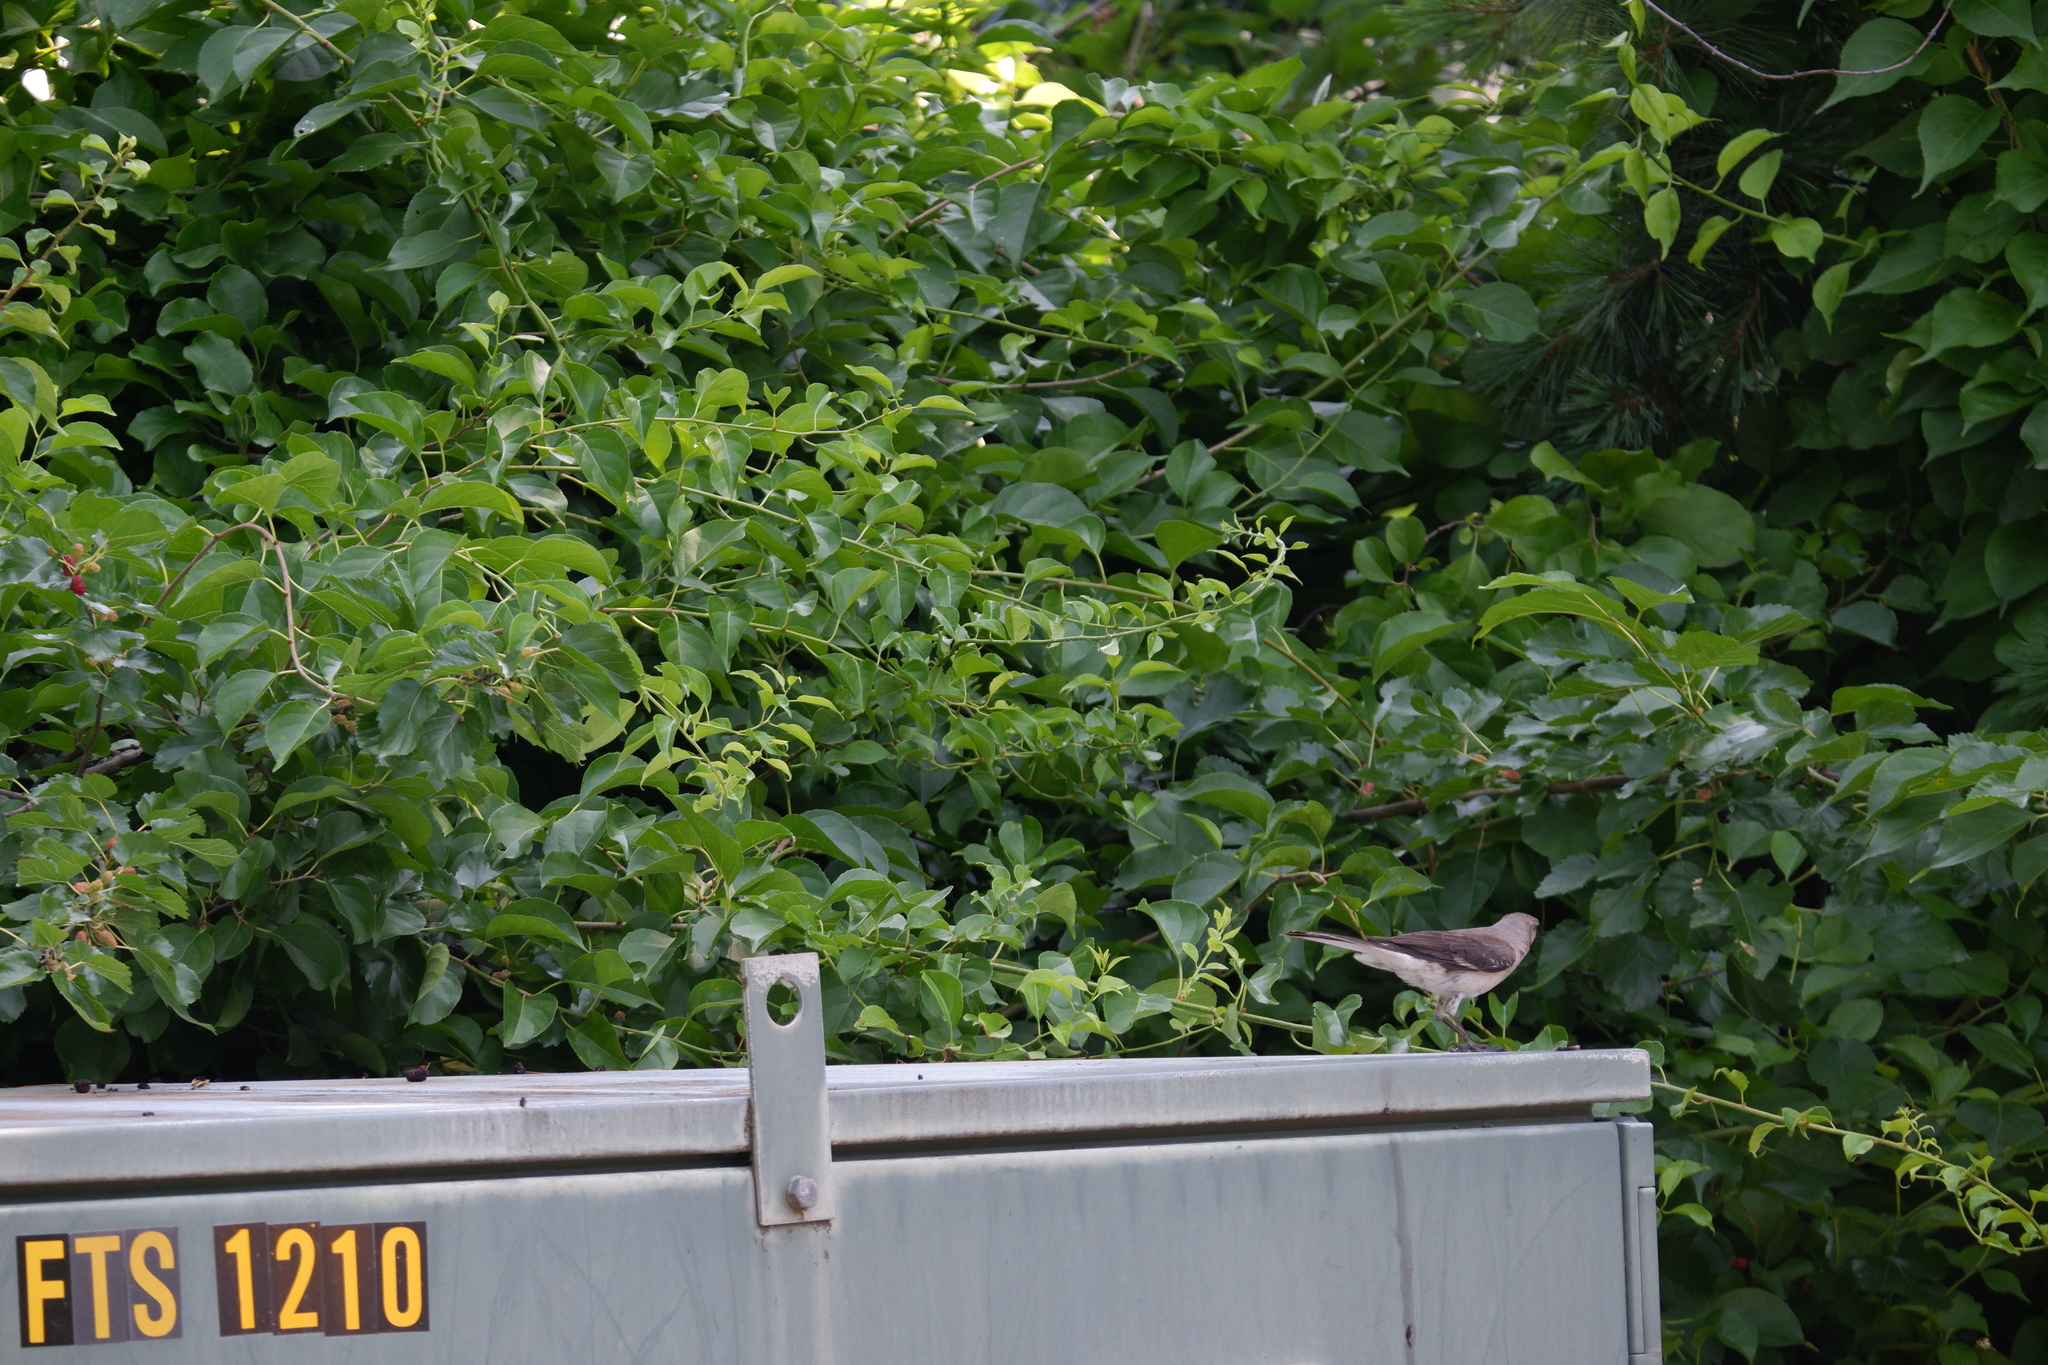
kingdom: Animalia
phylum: Chordata
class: Aves
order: Passeriformes
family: Mimidae
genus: Mimus
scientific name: Mimus polyglottos
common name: Northern mockingbird
